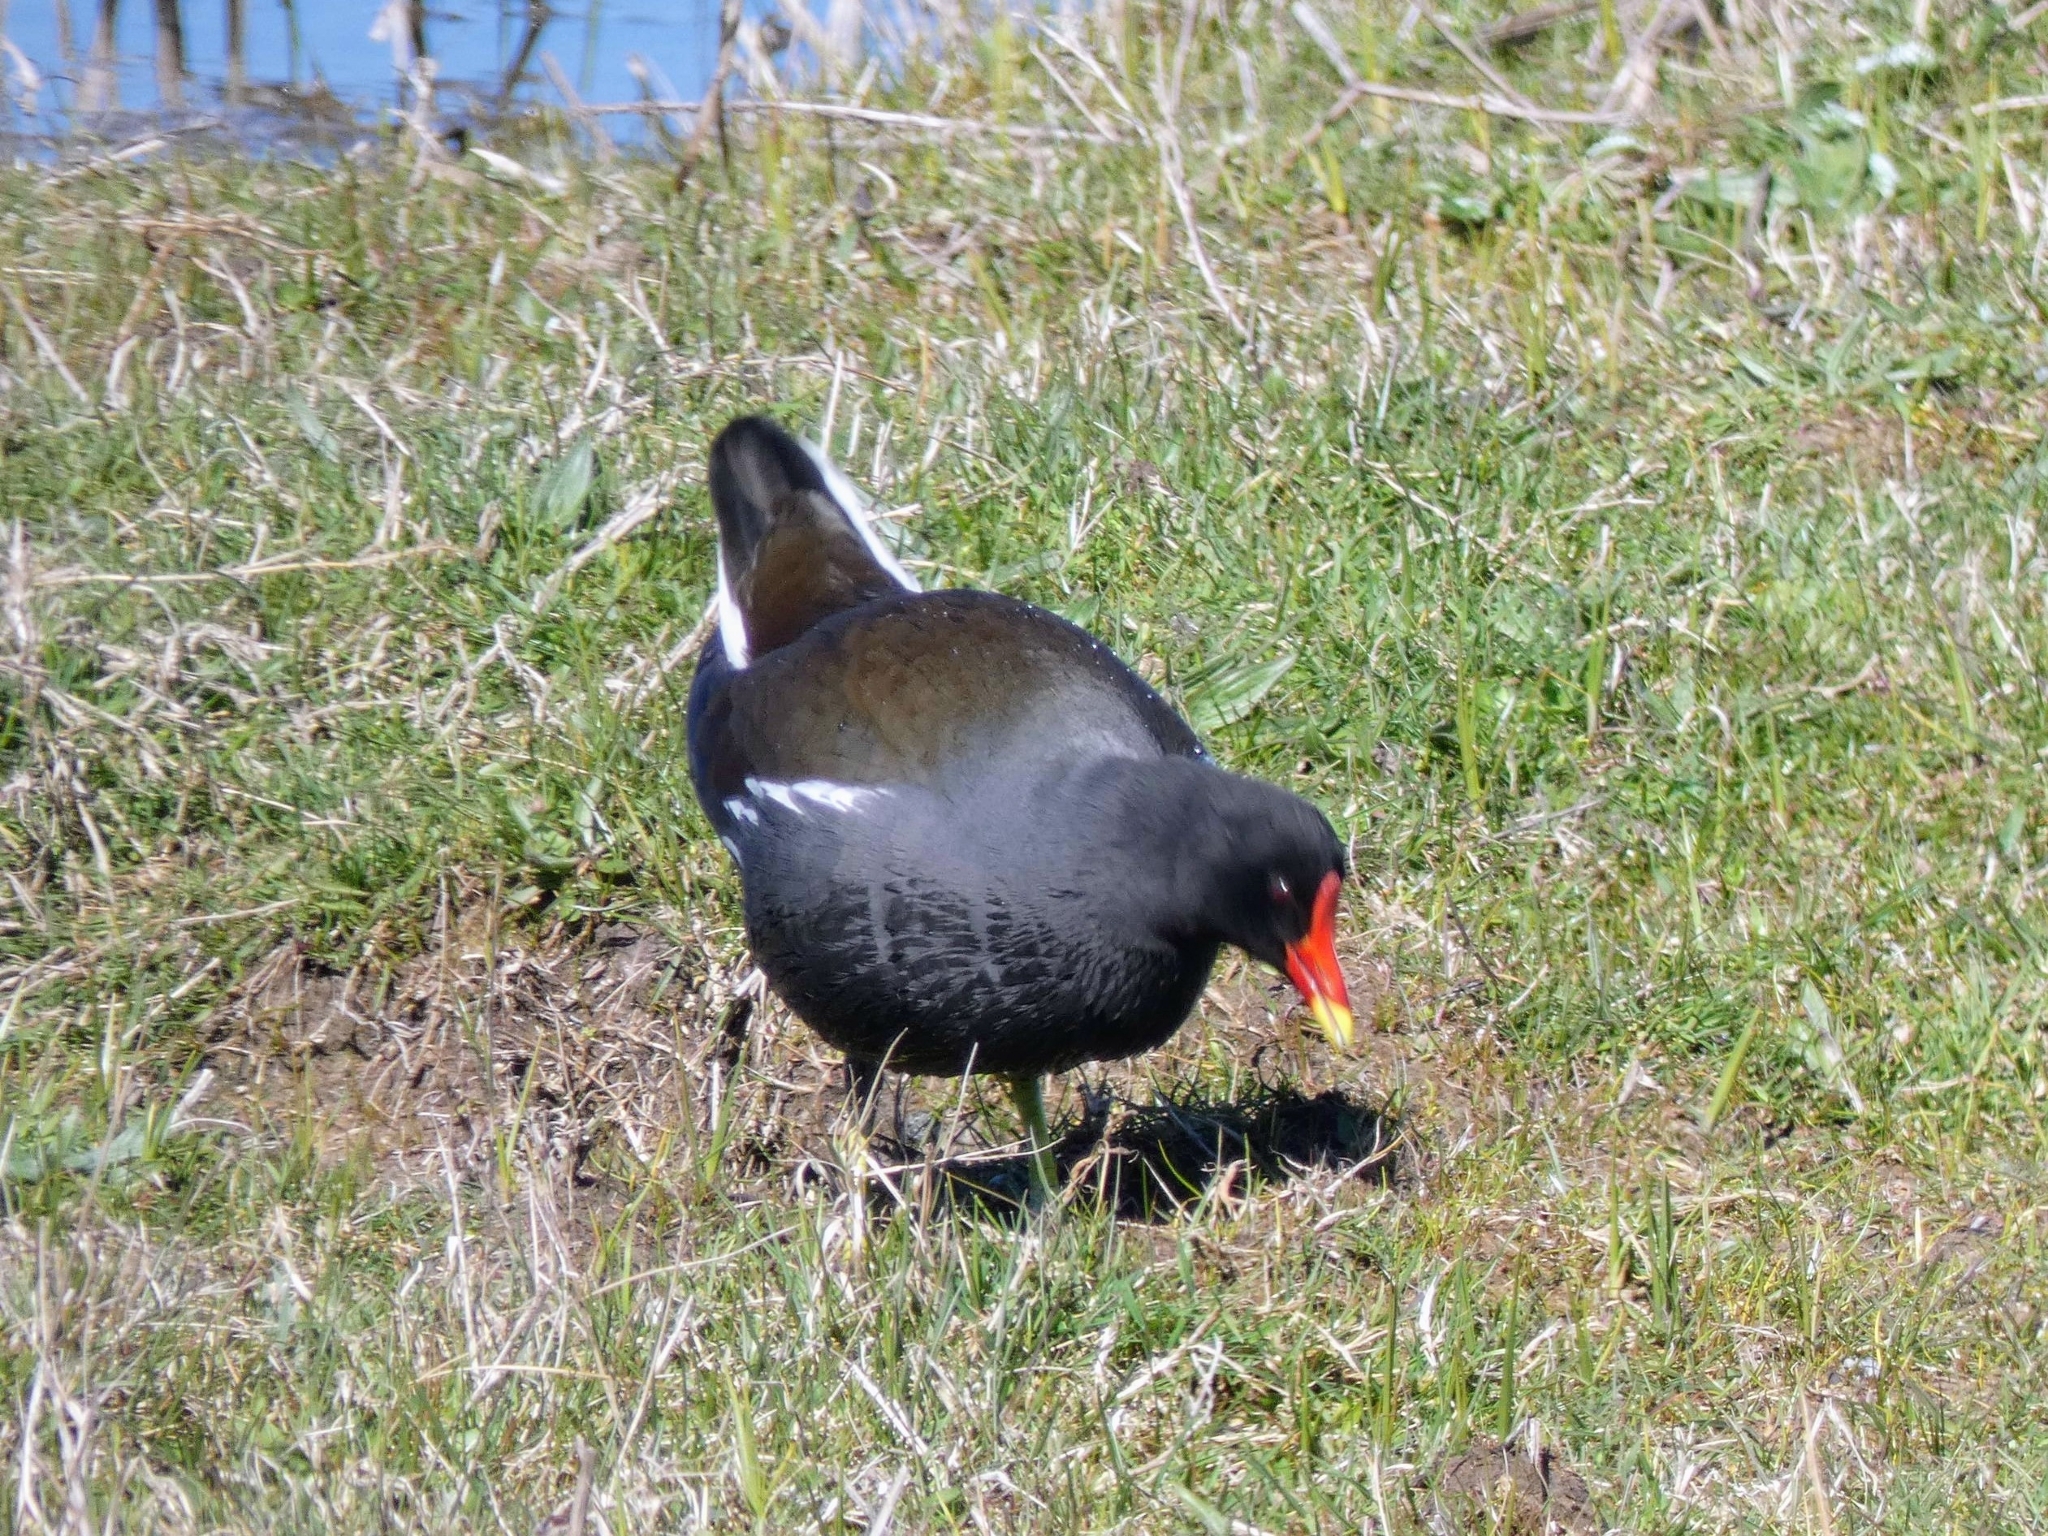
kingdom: Animalia
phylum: Chordata
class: Aves
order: Gruiformes
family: Rallidae
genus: Gallinula
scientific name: Gallinula chloropus
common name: Common moorhen
